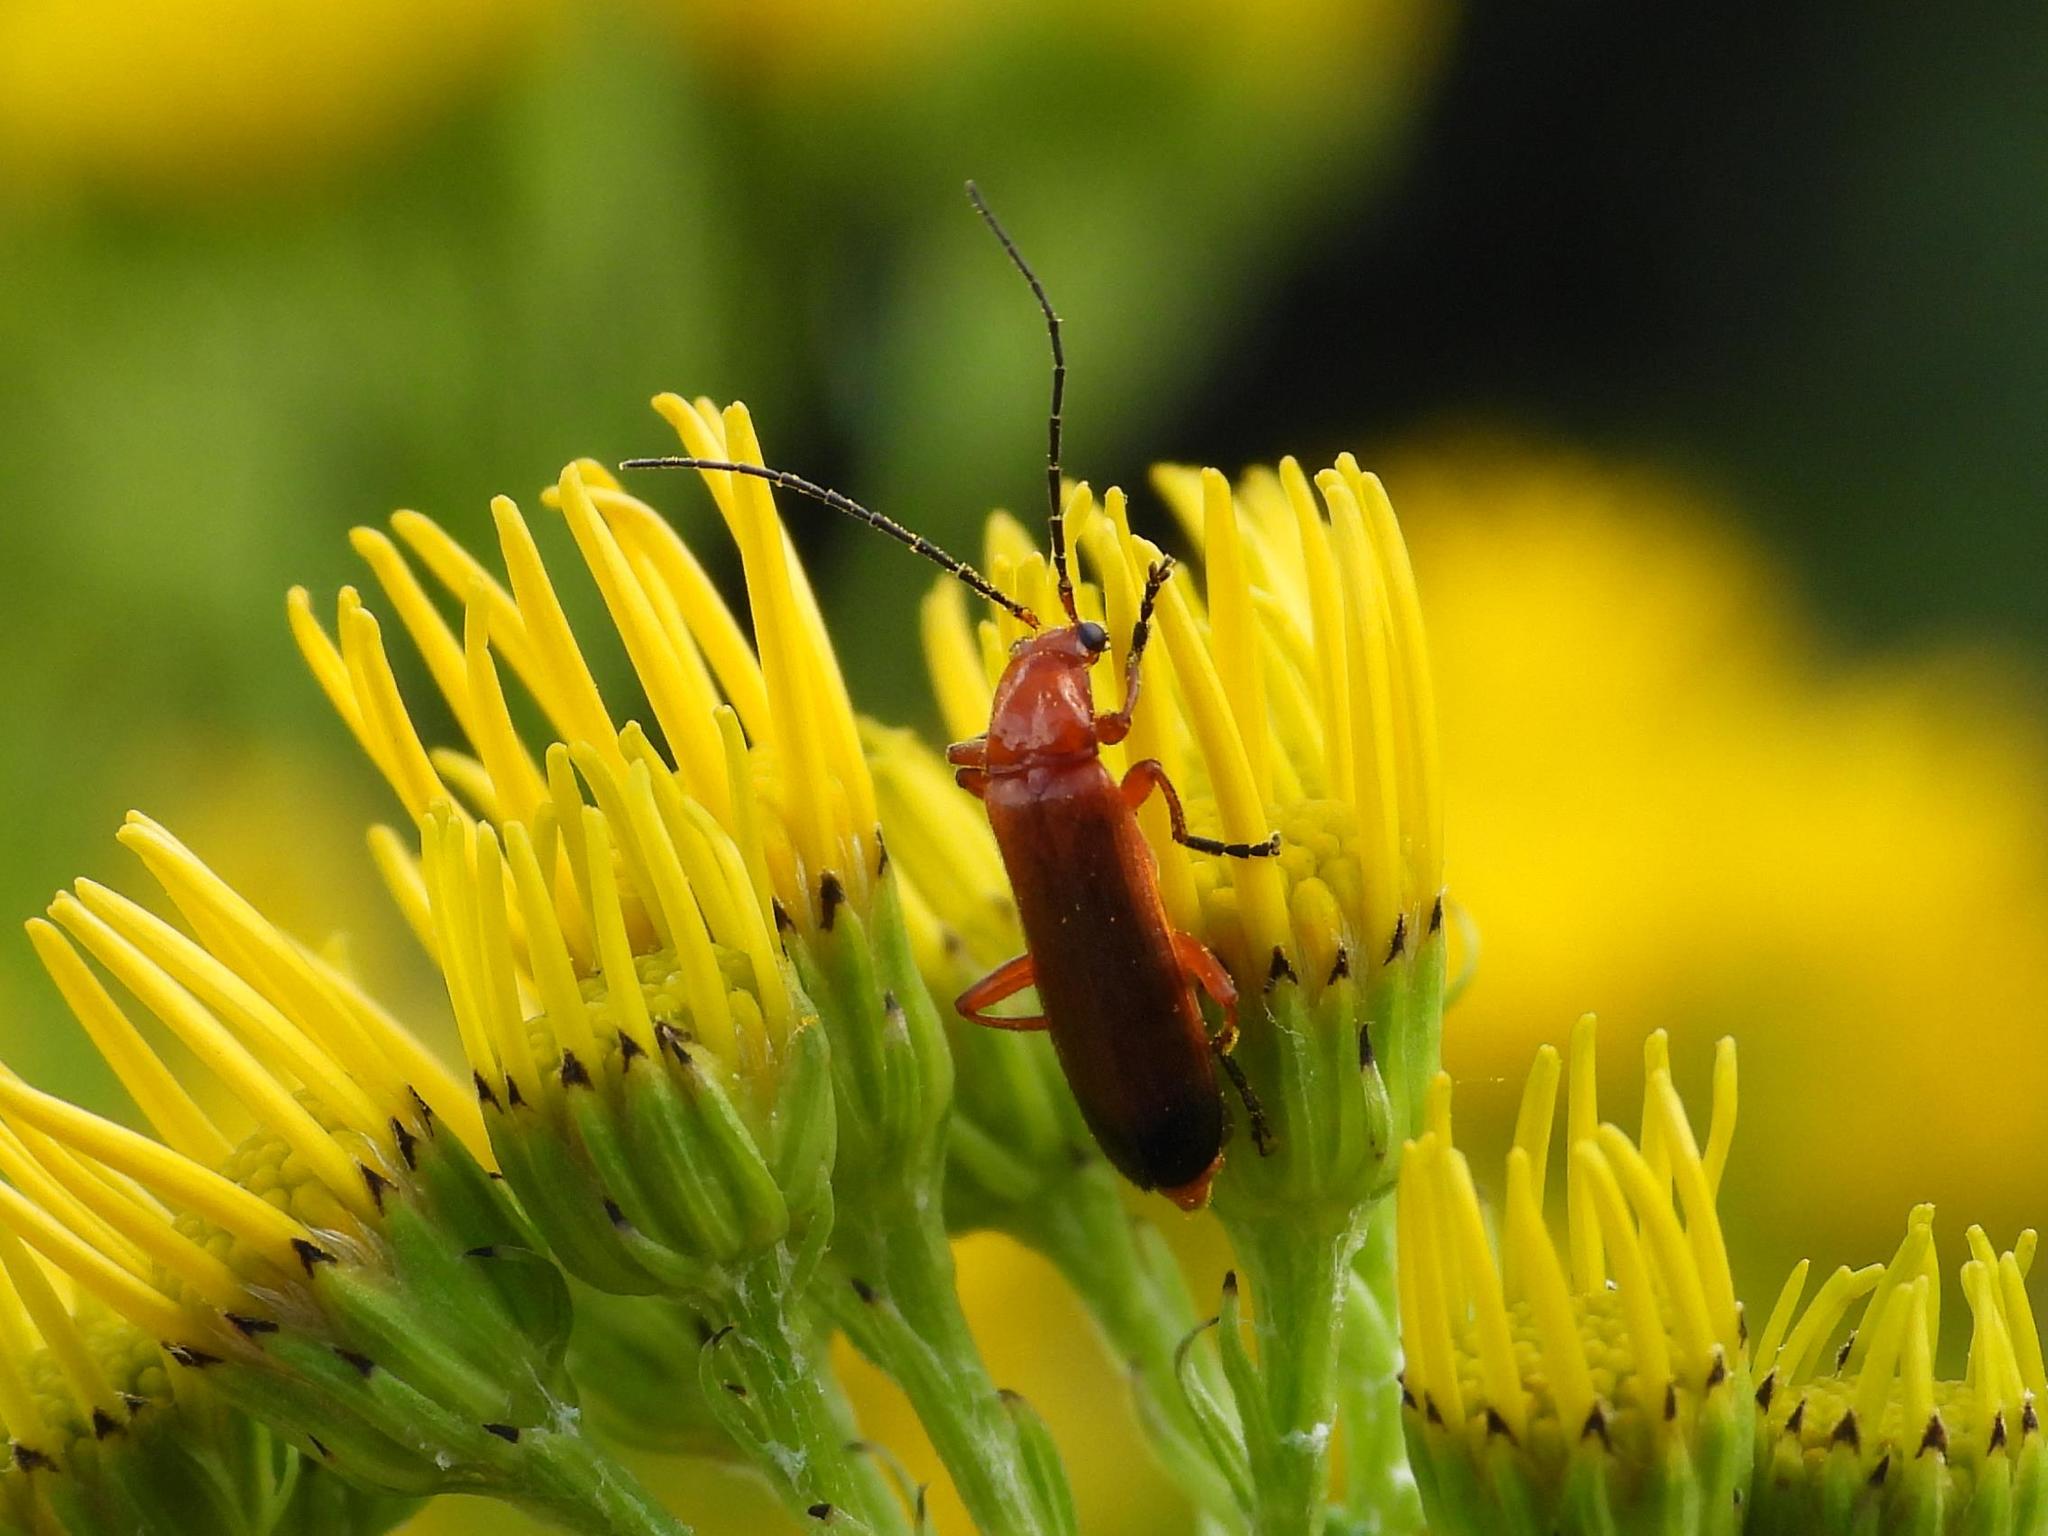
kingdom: Animalia
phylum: Arthropoda
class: Insecta
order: Coleoptera
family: Cantharidae
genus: Rhagonycha
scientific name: Rhagonycha fulva
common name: Common red soldier beetle
